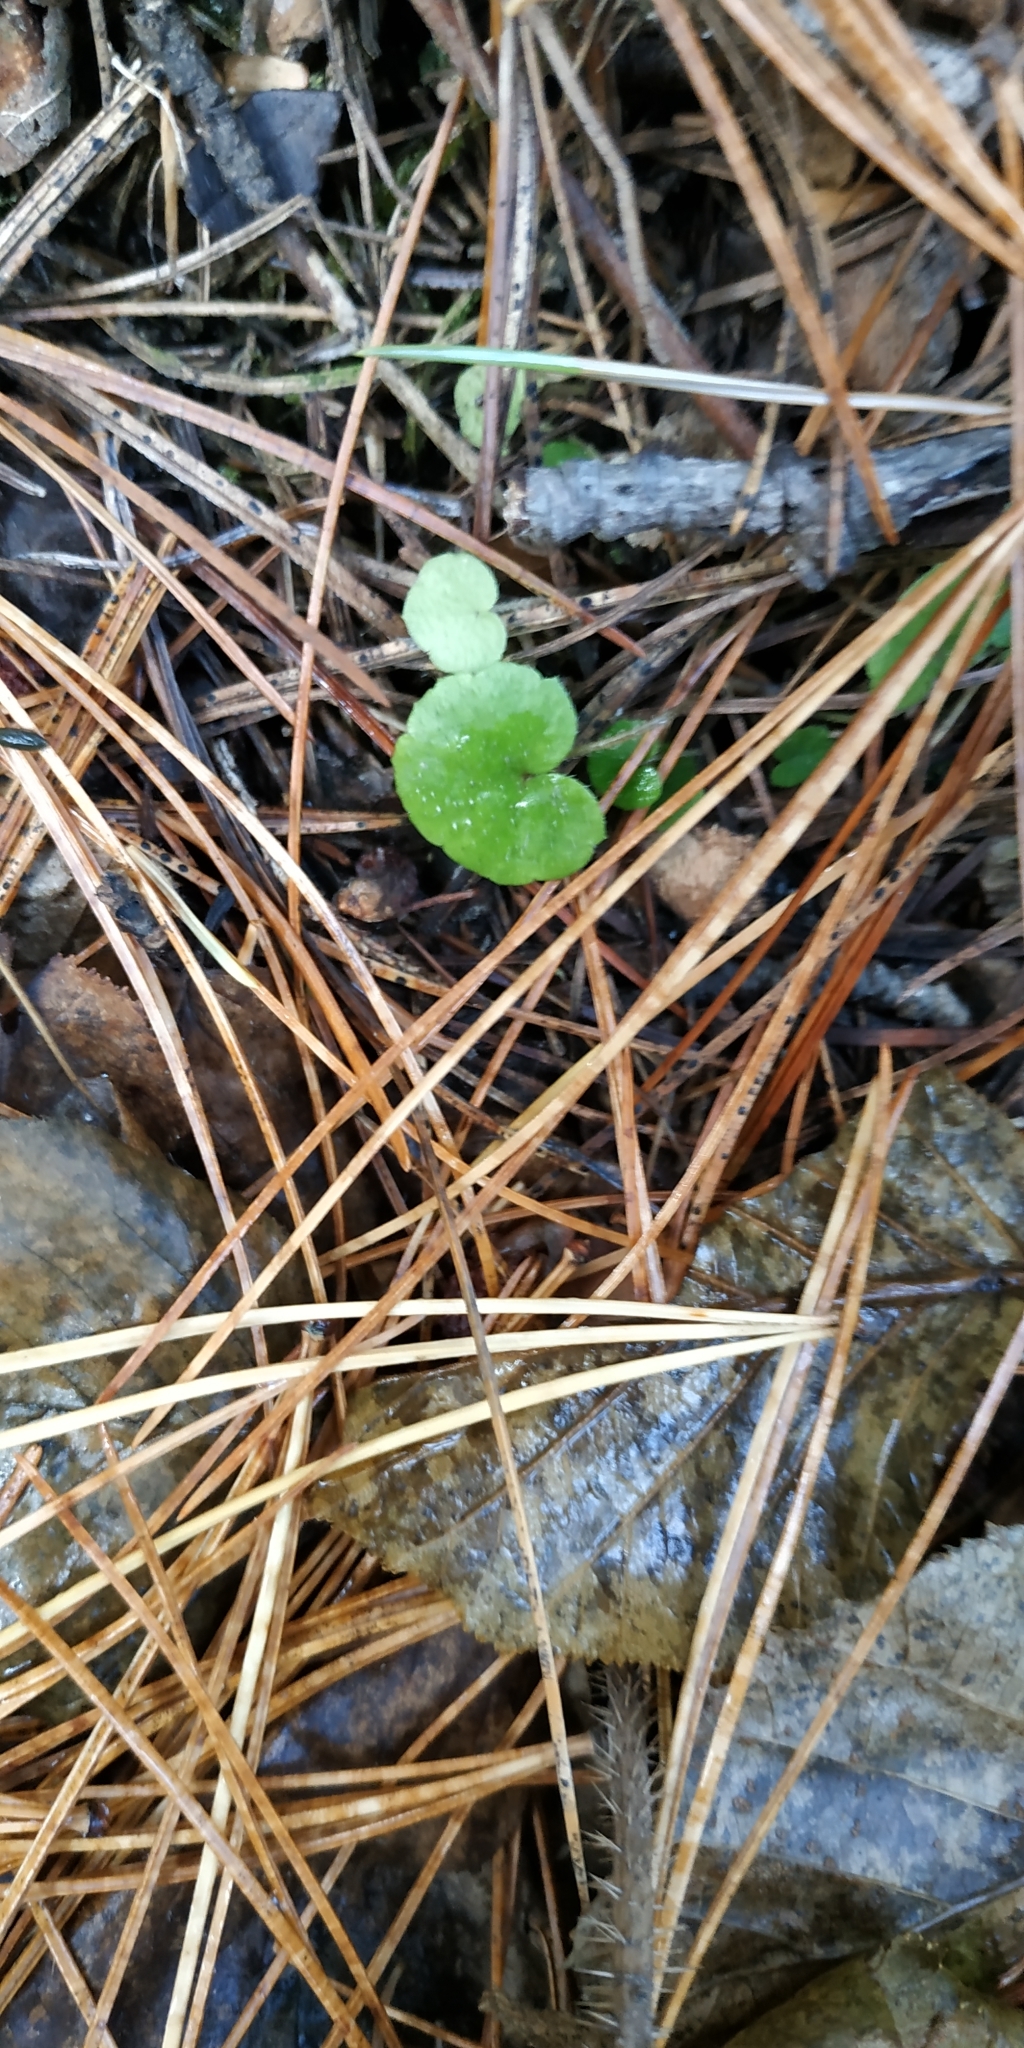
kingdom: Plantae
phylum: Tracheophyta
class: Magnoliopsida
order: Saxifragales
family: Saxifragaceae
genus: Mitella
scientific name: Mitella nuda
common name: Bare-stemmed bishop's-cap
